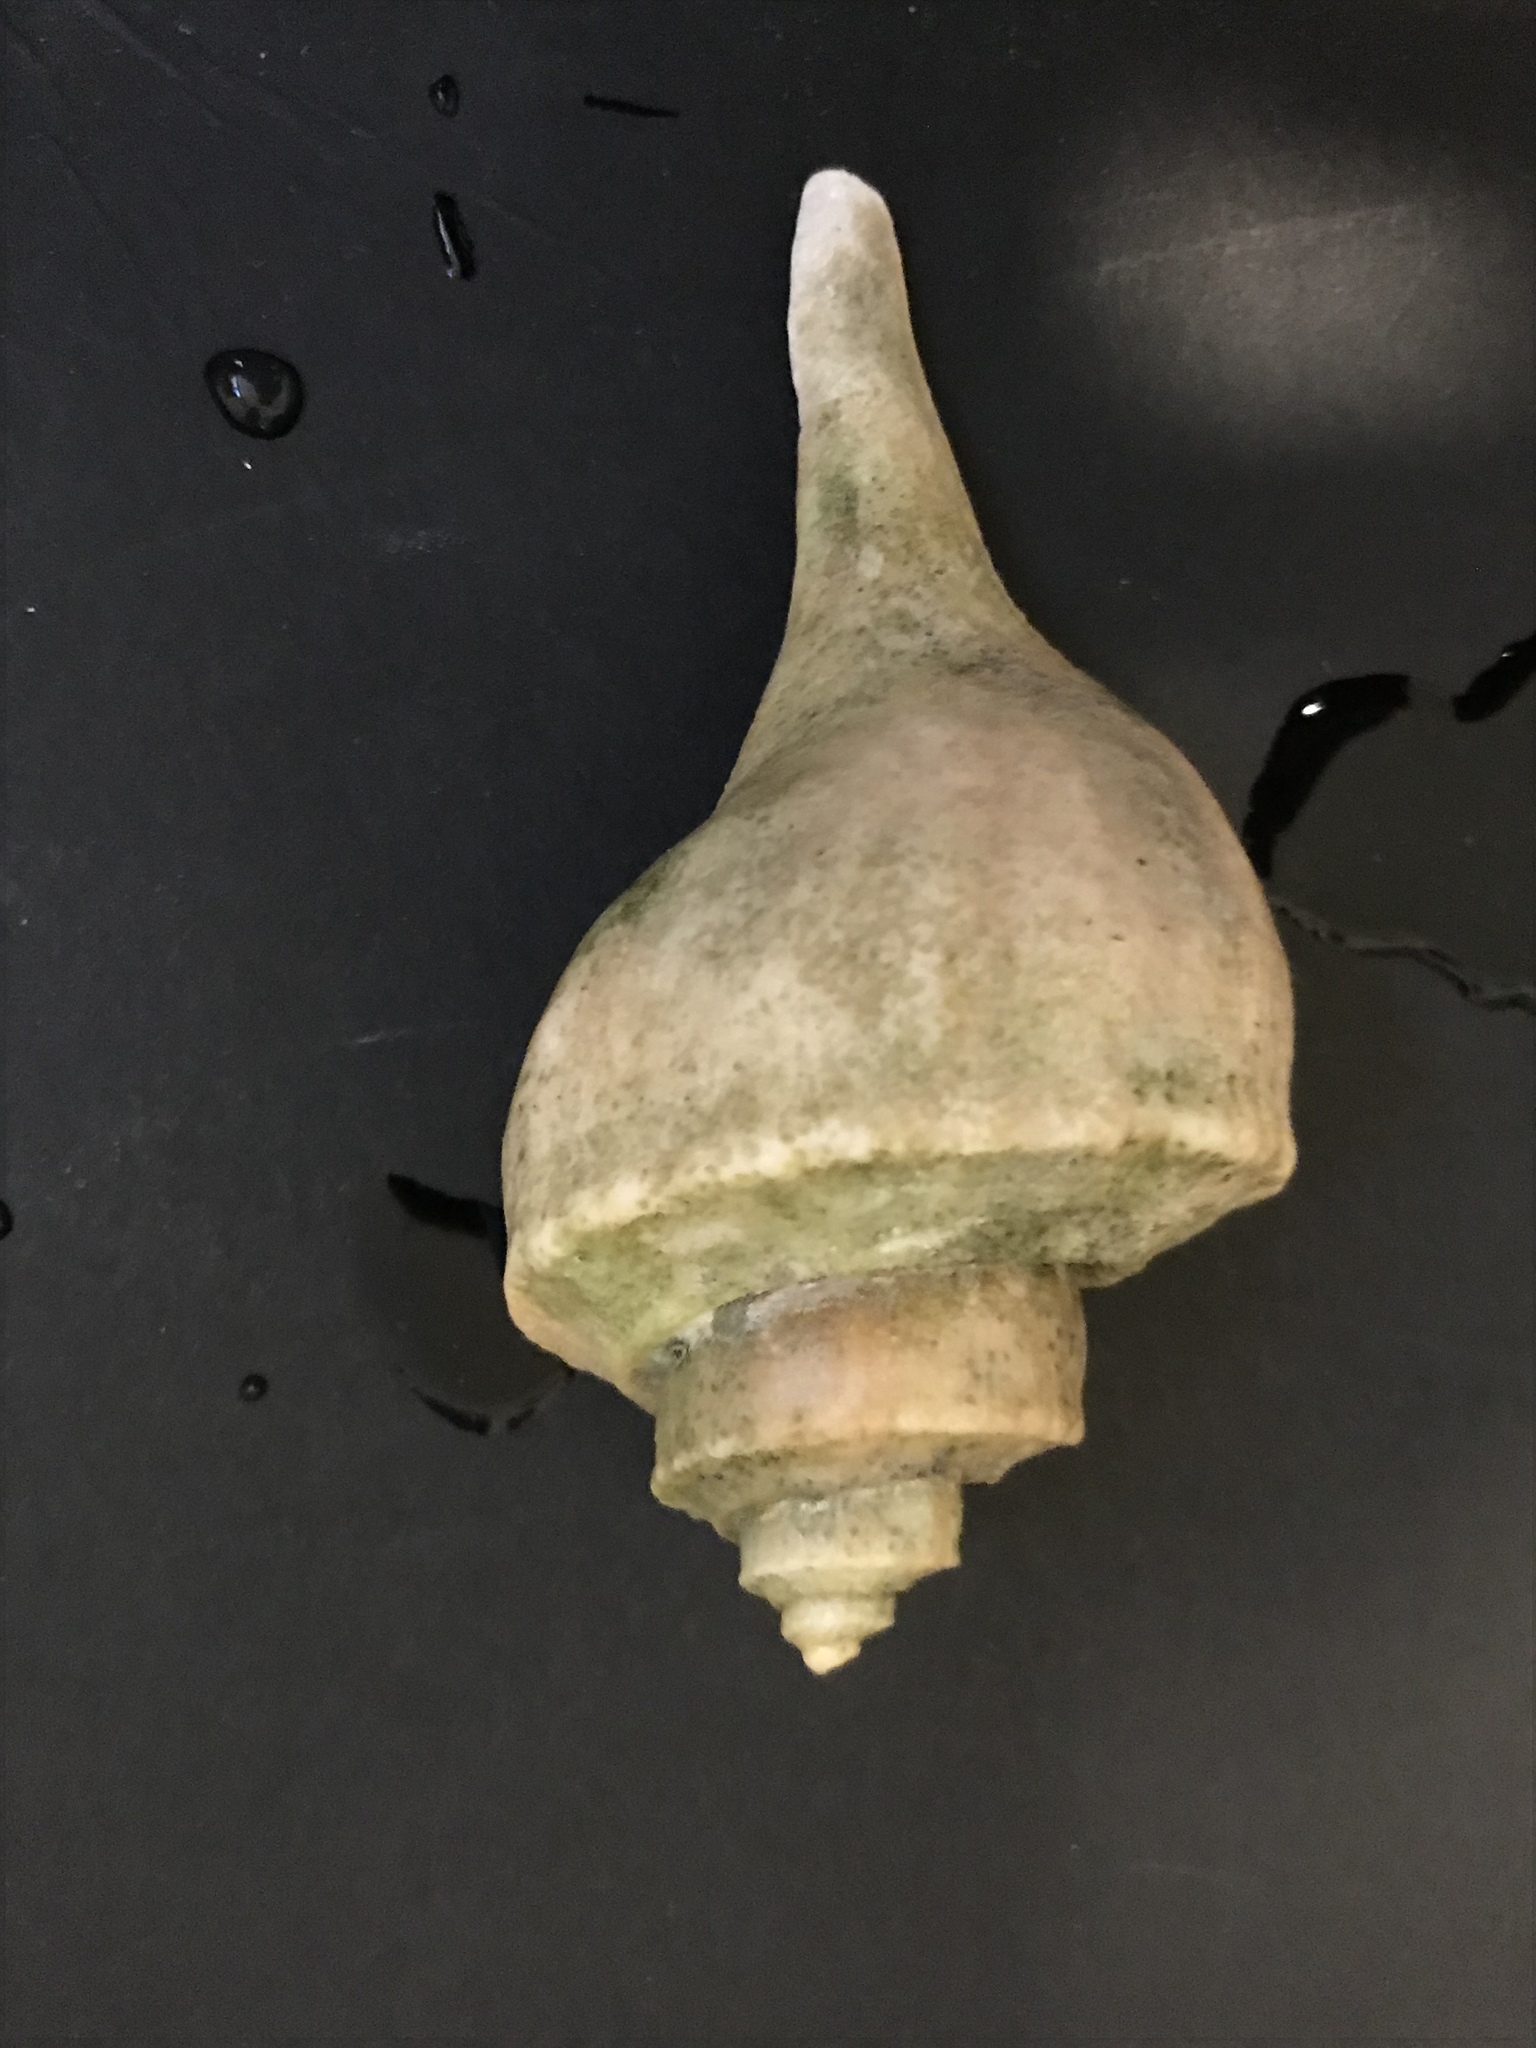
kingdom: Animalia
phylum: Mollusca
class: Gastropoda
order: Neogastropoda
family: Busyconidae
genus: Busycotypus
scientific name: Busycotypus canaliculatus
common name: Channeled whelk
